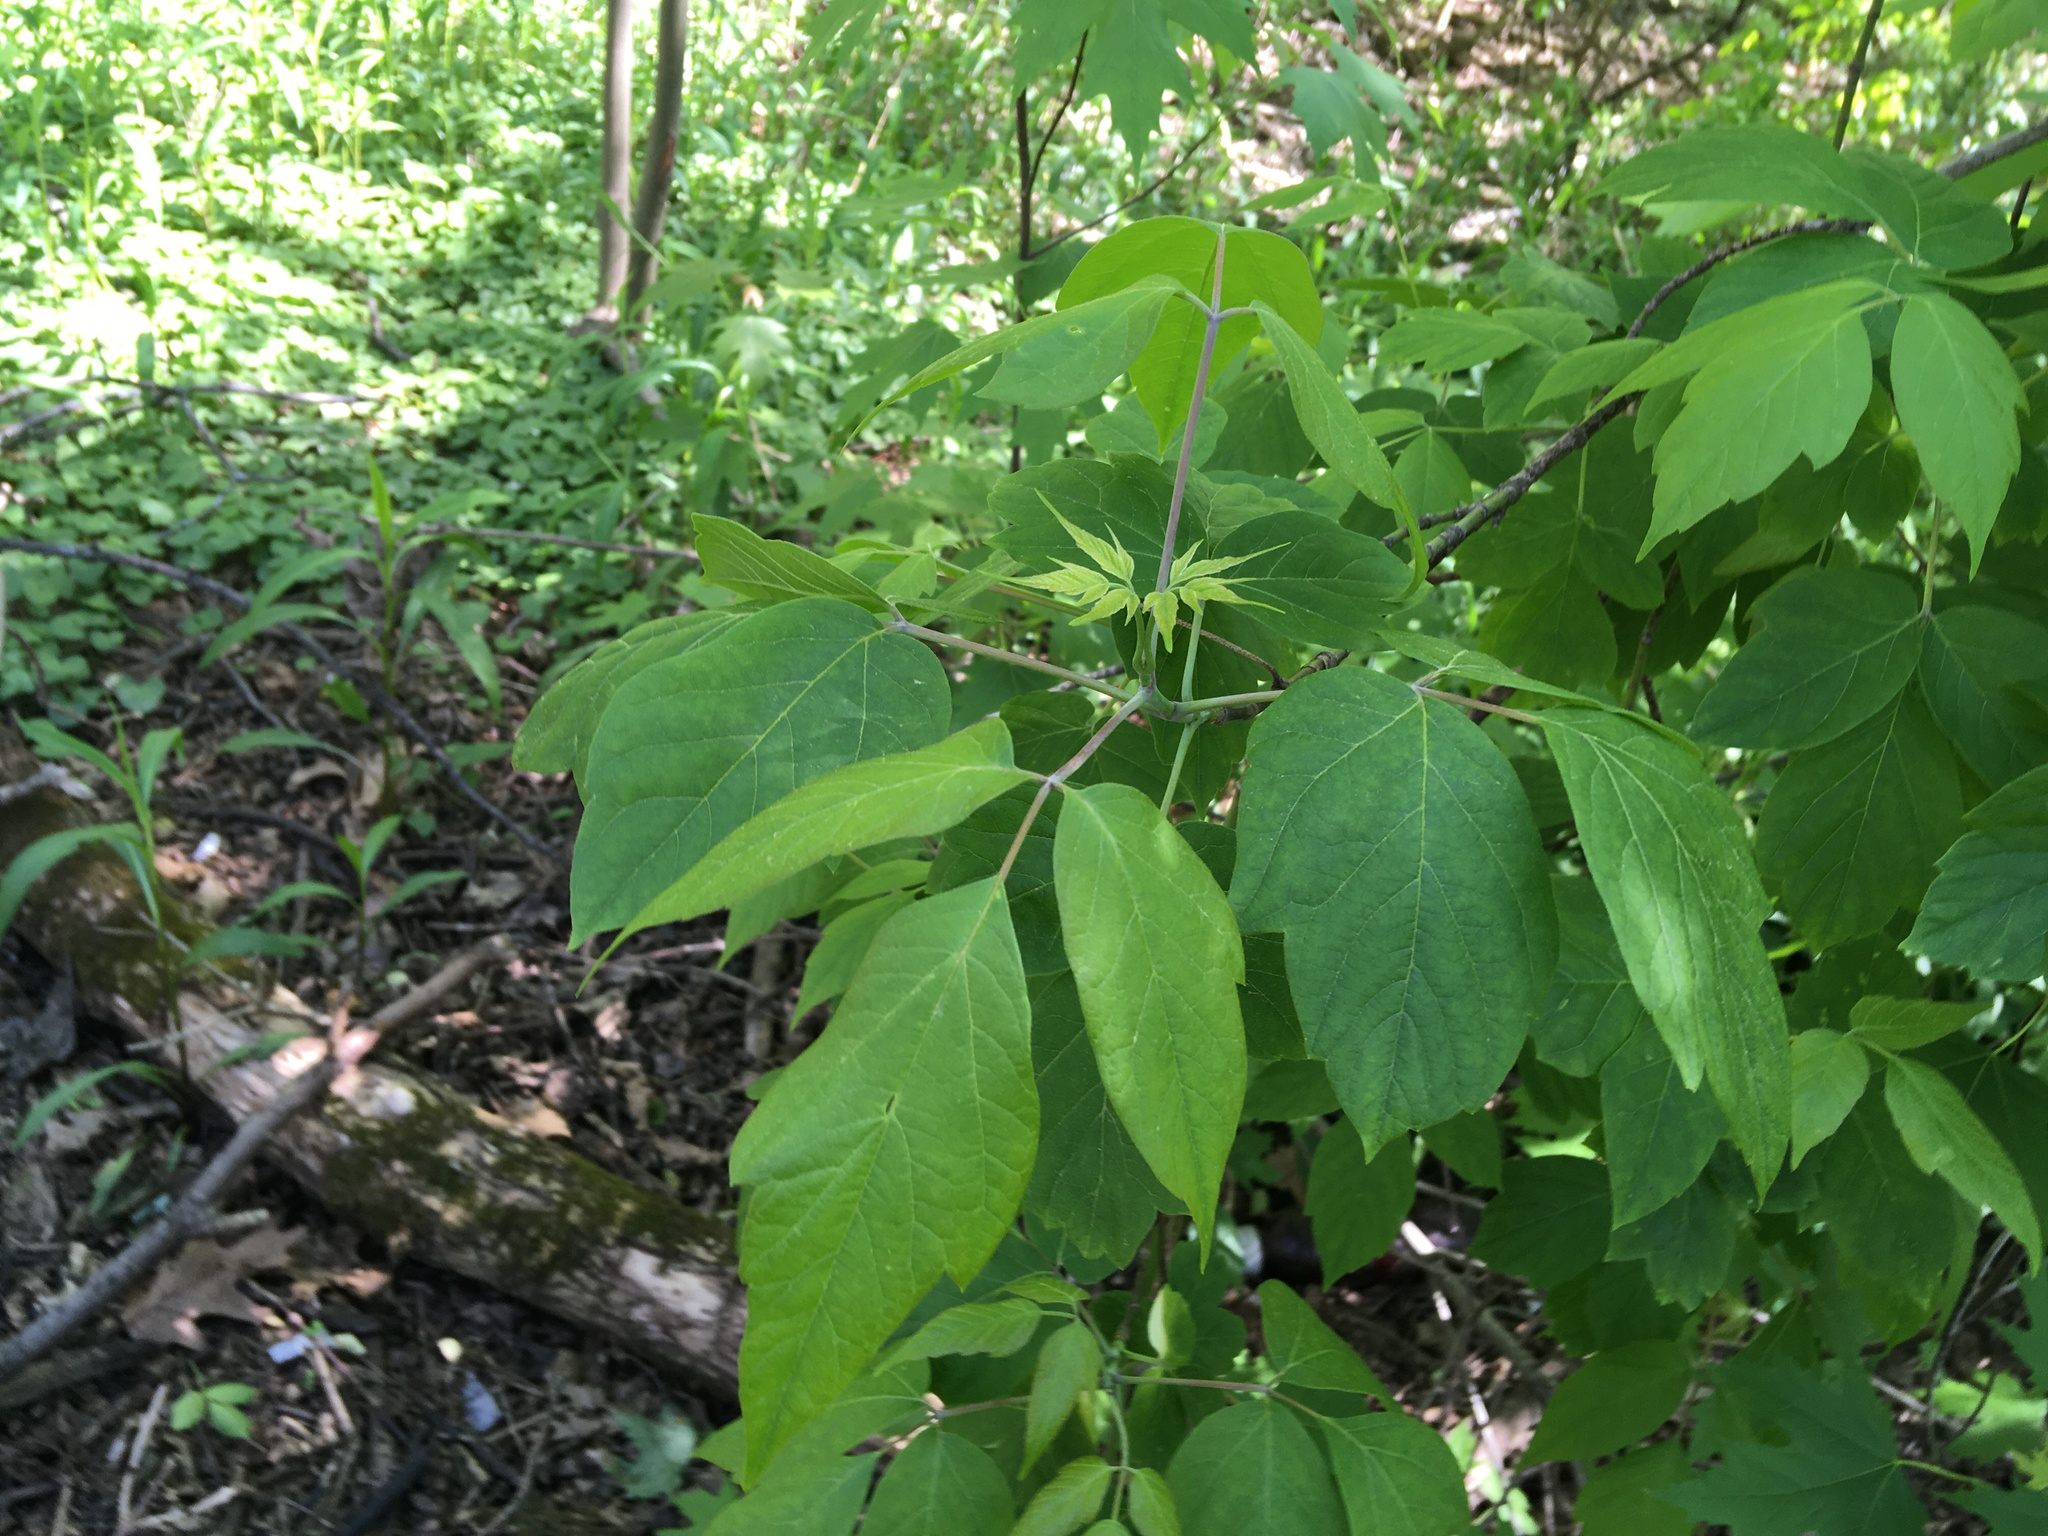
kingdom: Plantae
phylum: Tracheophyta
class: Magnoliopsida
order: Sapindales
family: Sapindaceae
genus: Acer
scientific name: Acer negundo
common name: Ashleaf maple
